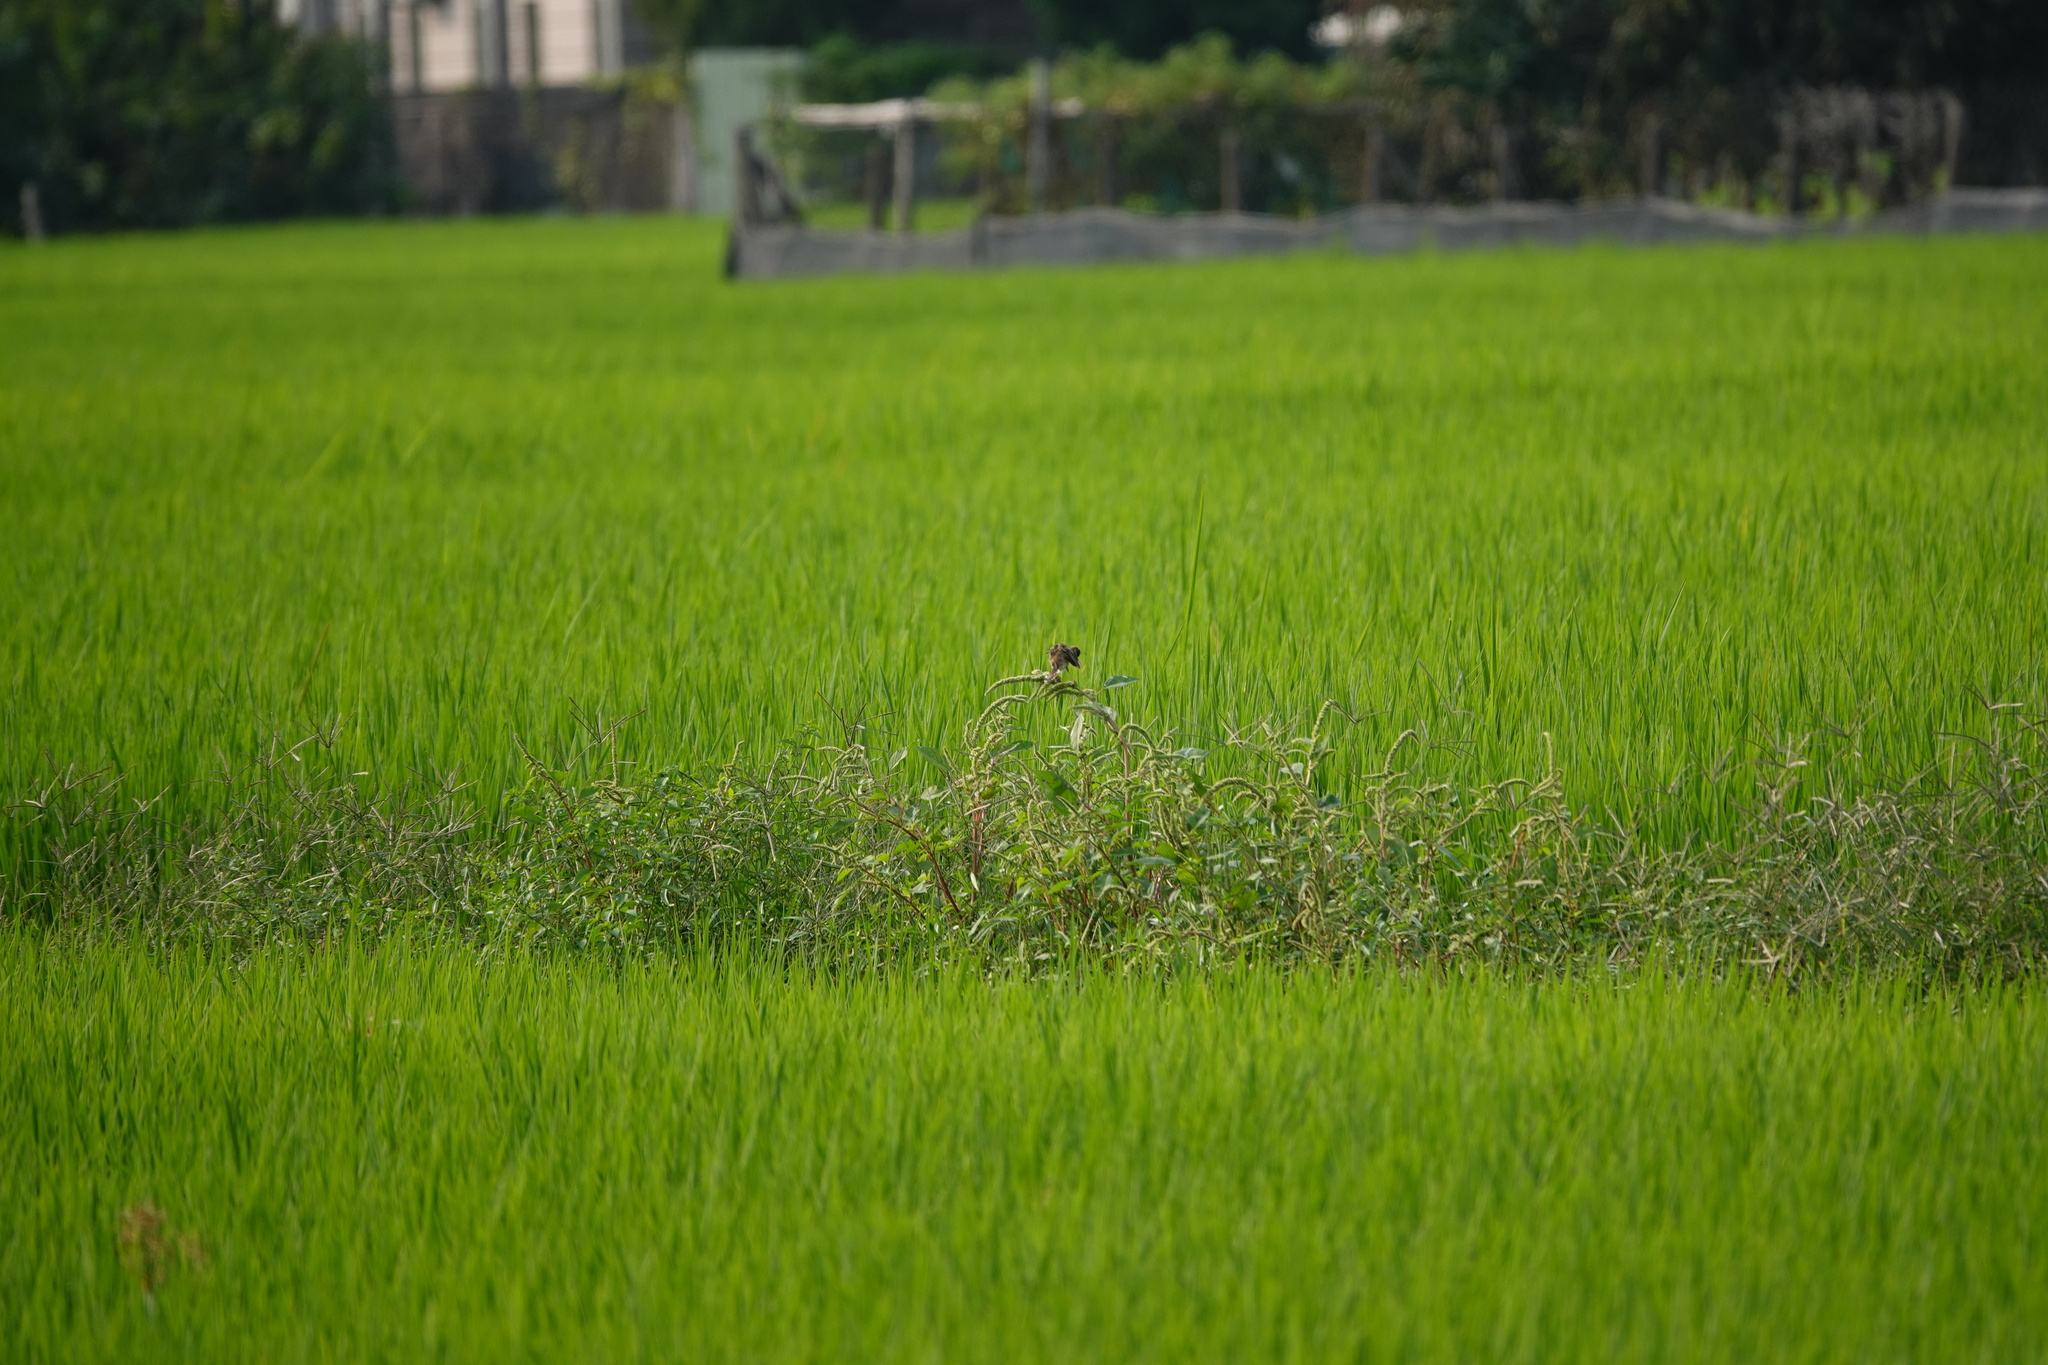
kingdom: Animalia
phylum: Chordata
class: Aves
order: Passeriformes
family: Cisticolidae
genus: Cisticola
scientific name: Cisticola juncidis
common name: Zitting cisticola
